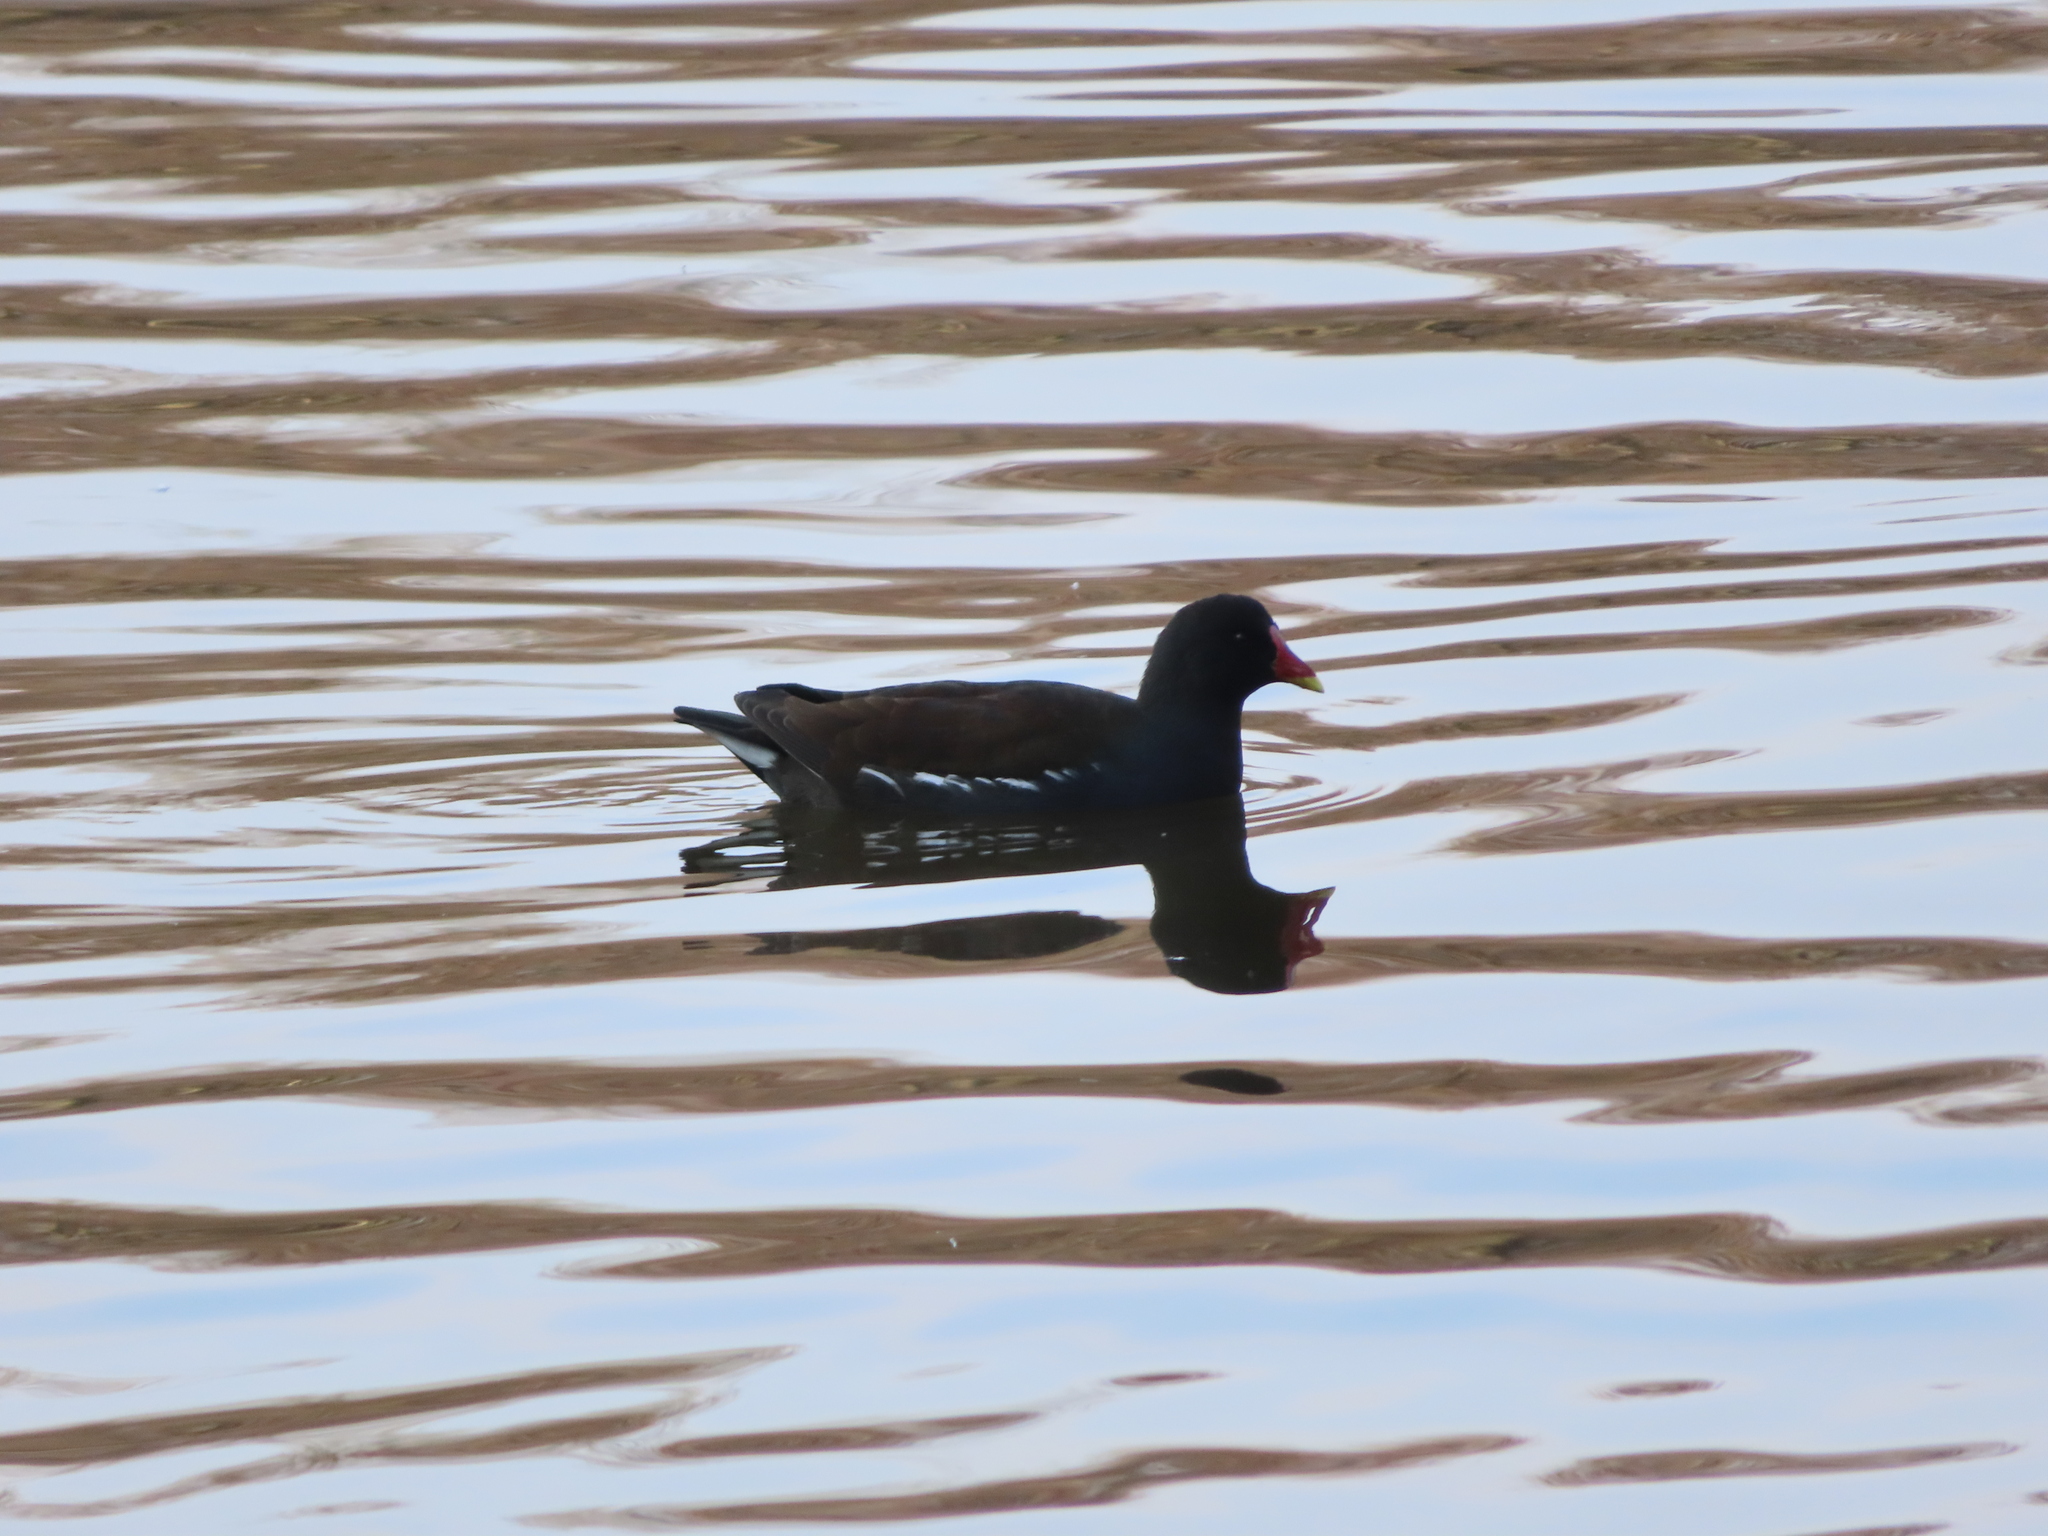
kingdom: Animalia
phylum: Chordata
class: Aves
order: Gruiformes
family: Rallidae
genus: Gallinula
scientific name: Gallinula chloropus
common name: Common moorhen
